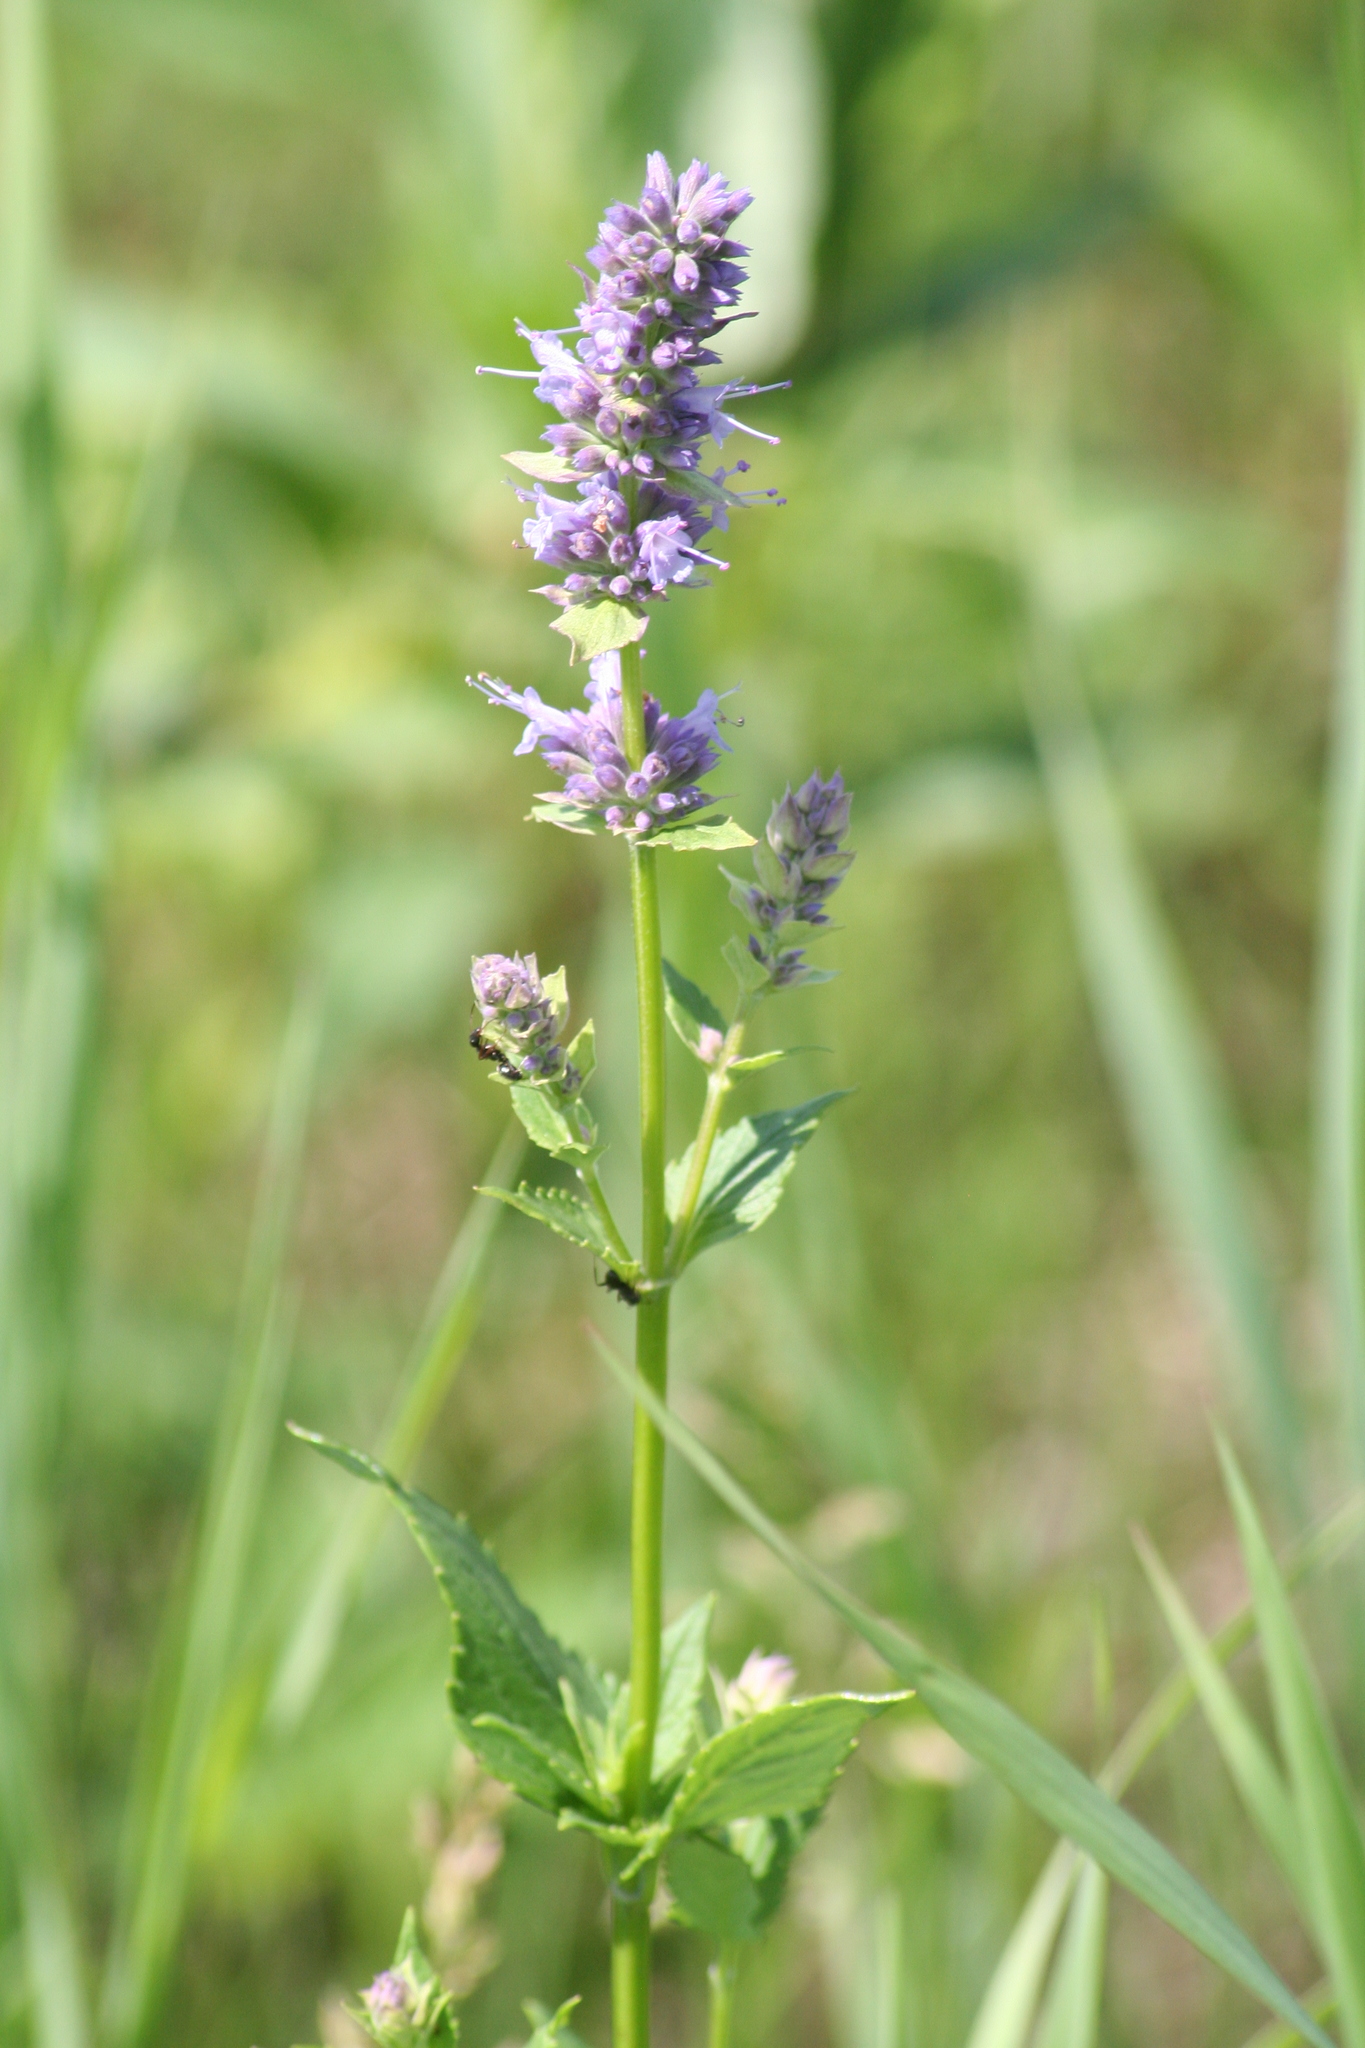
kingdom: Plantae
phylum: Tracheophyta
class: Magnoliopsida
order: Lamiales
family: Lamiaceae
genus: Agastache
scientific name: Agastache foeniculum
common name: Anise hyssop
